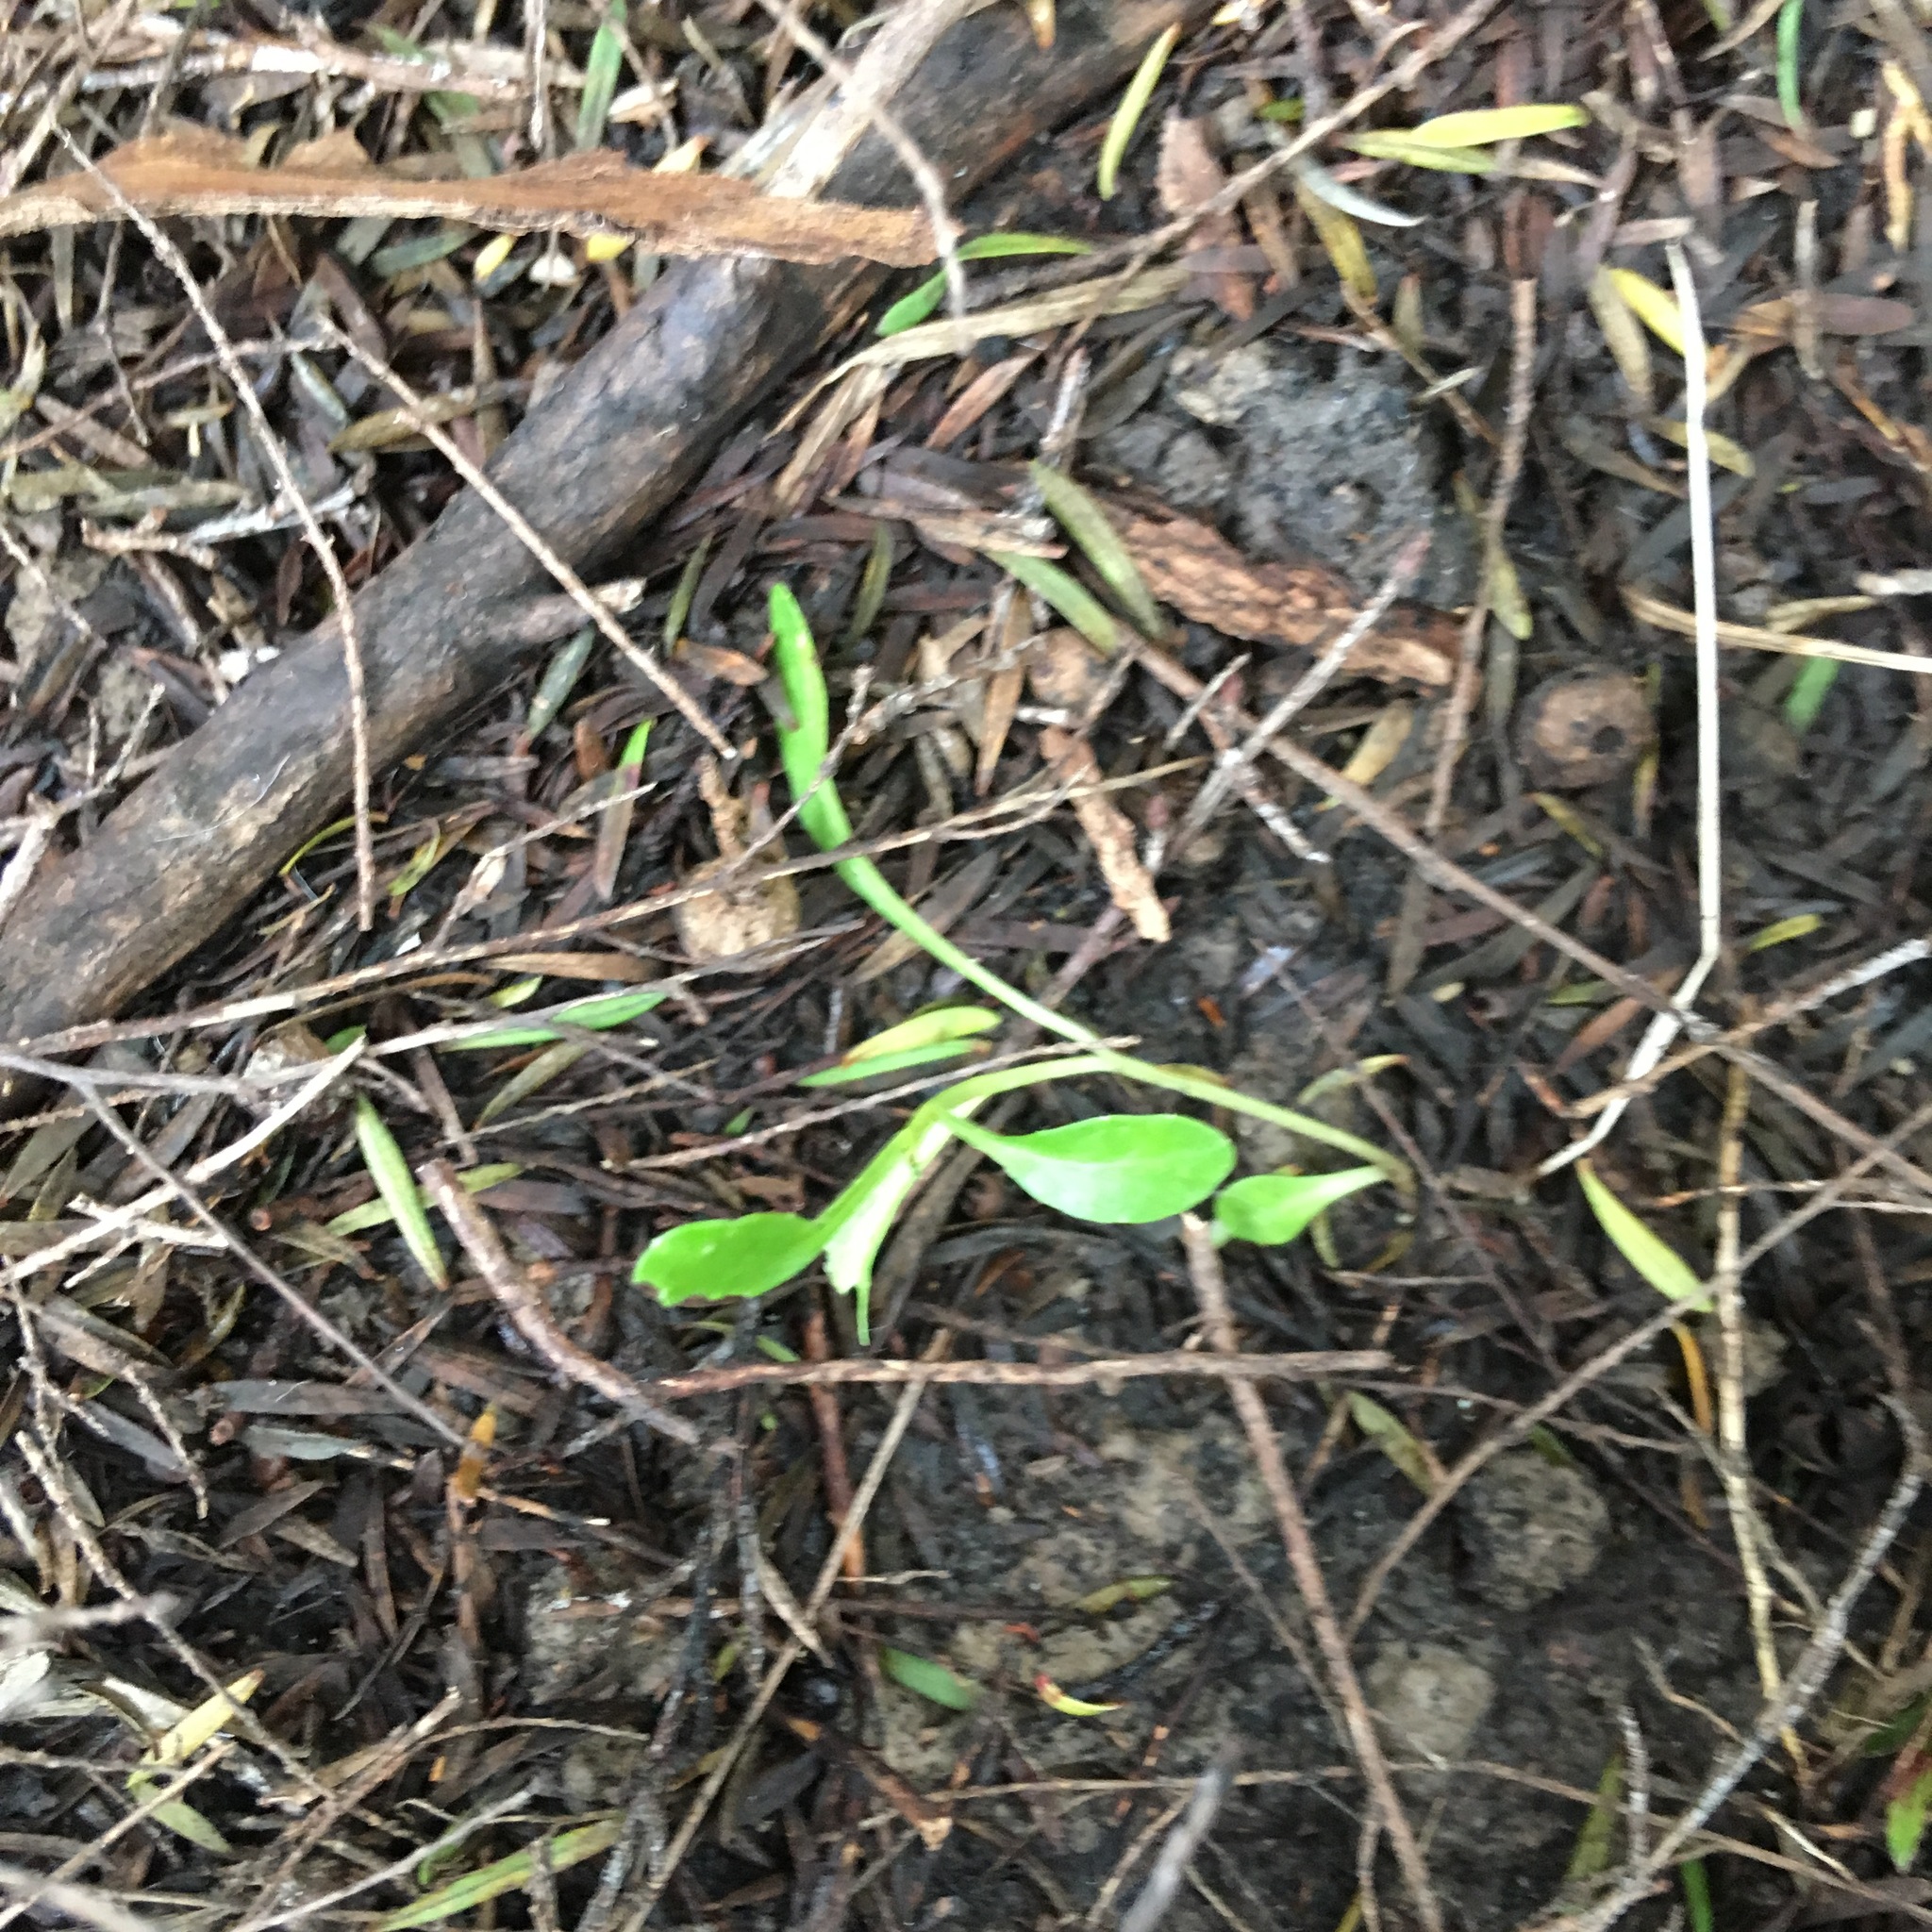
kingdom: Plantae
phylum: Tracheophyta
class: Magnoliopsida
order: Asterales
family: Campanulaceae
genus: Lobelia
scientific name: Lobelia anceps
